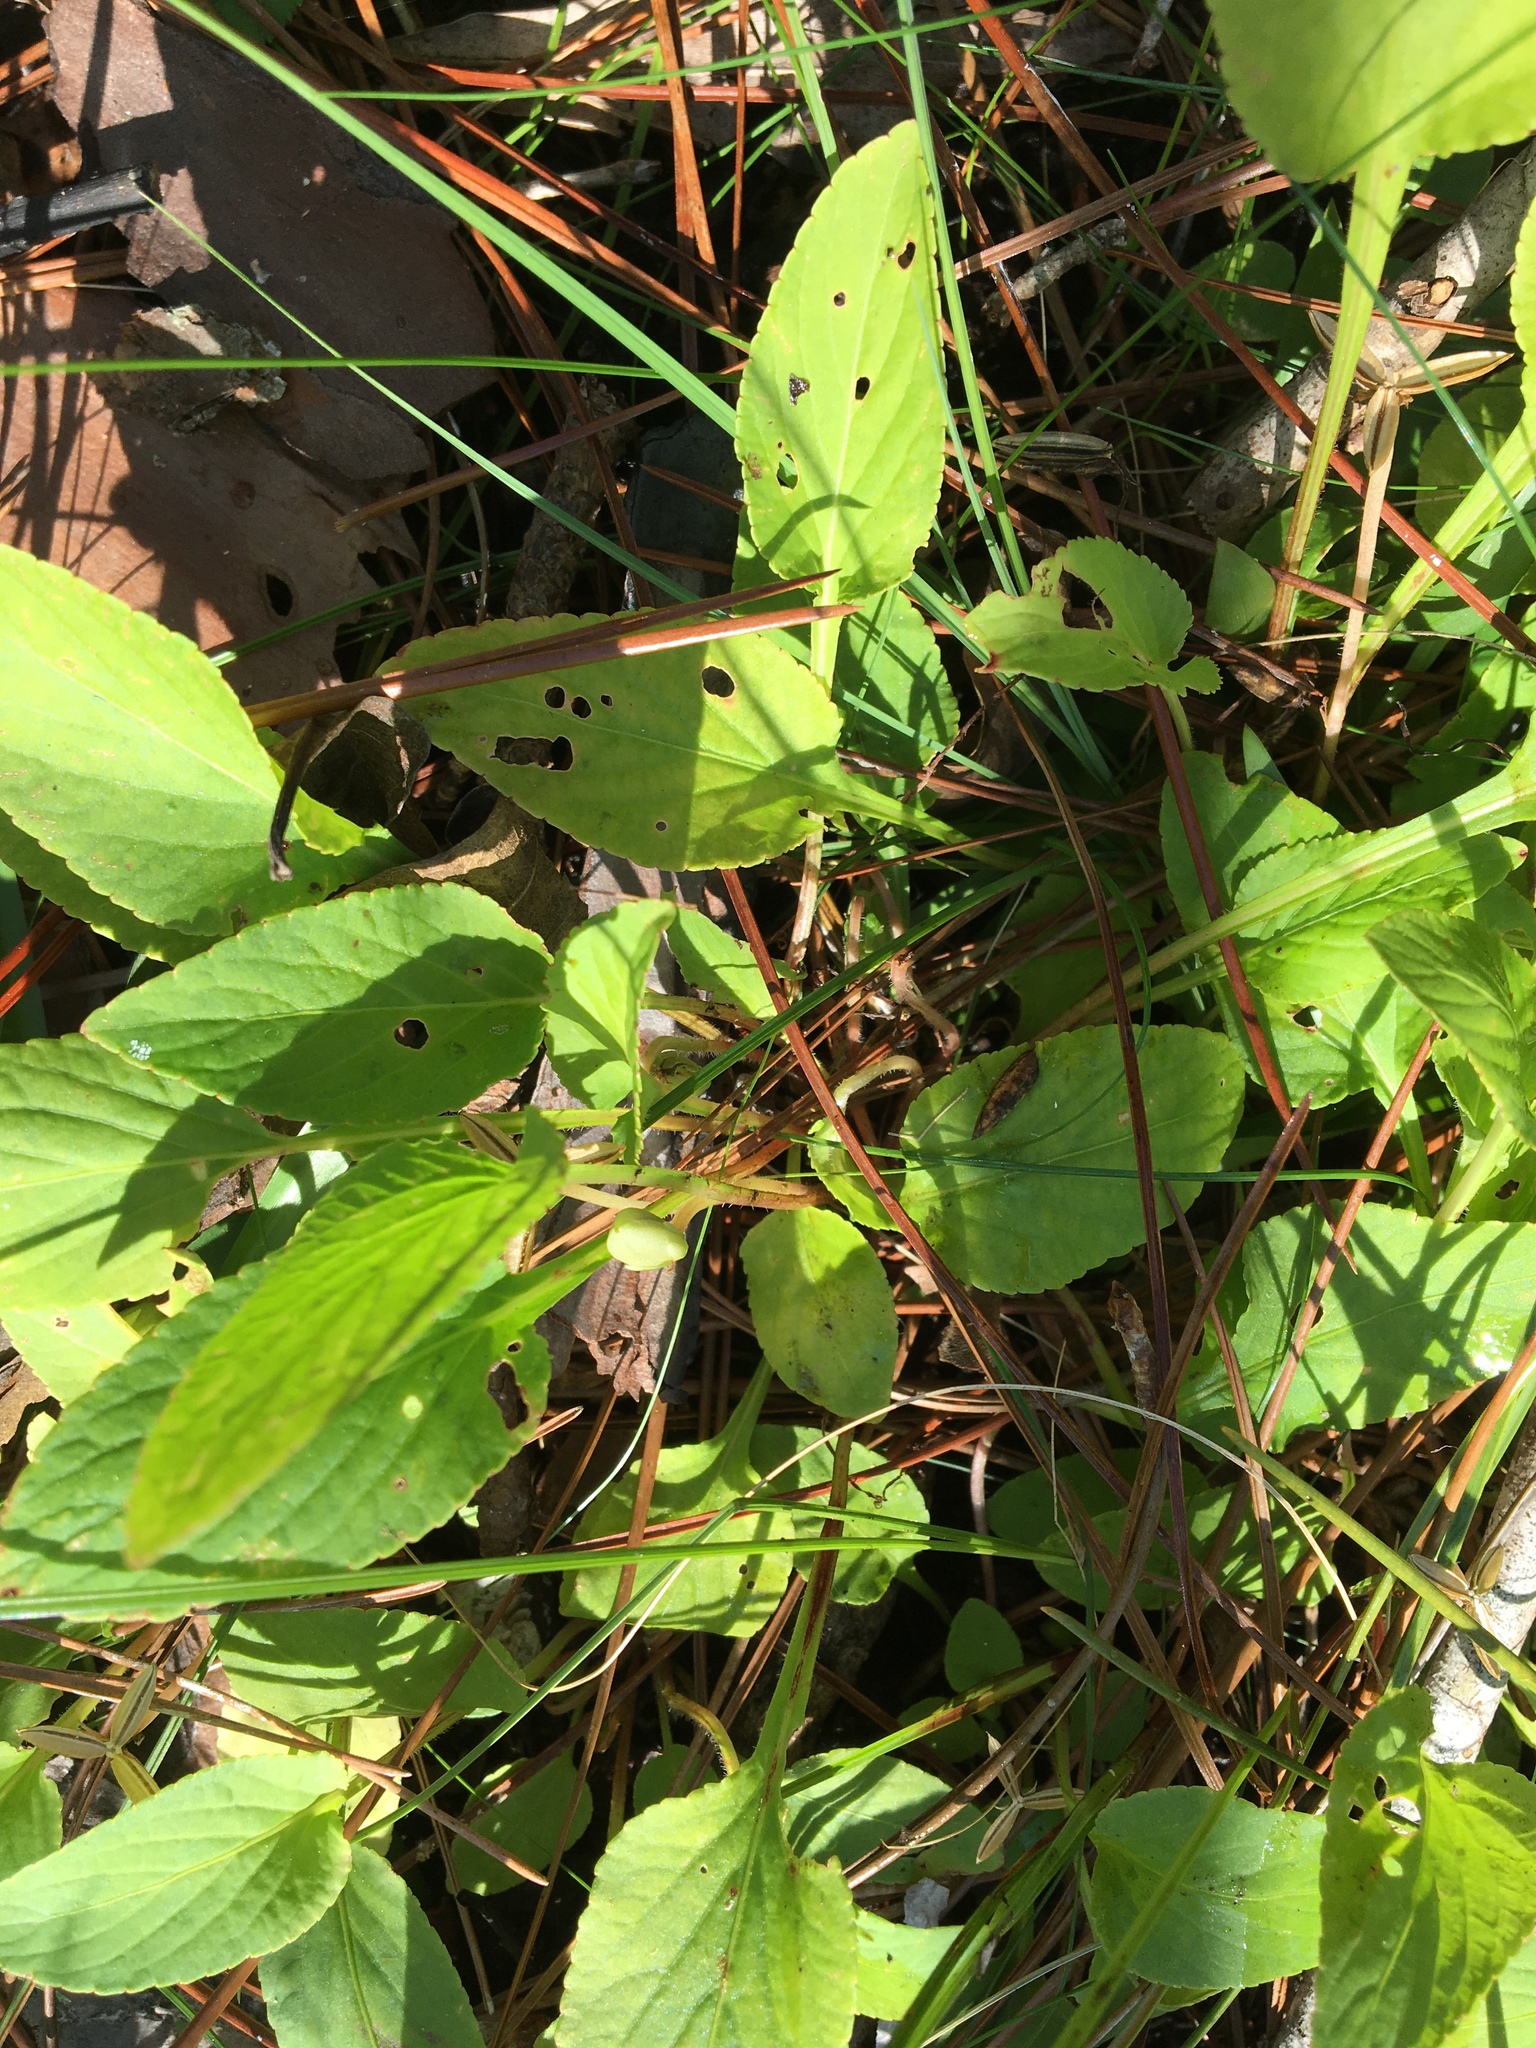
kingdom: Plantae
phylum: Tracheophyta
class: Magnoliopsida
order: Malpighiales
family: Violaceae
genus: Viola
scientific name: Viola primulifolia
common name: Primrose-leaf violet
